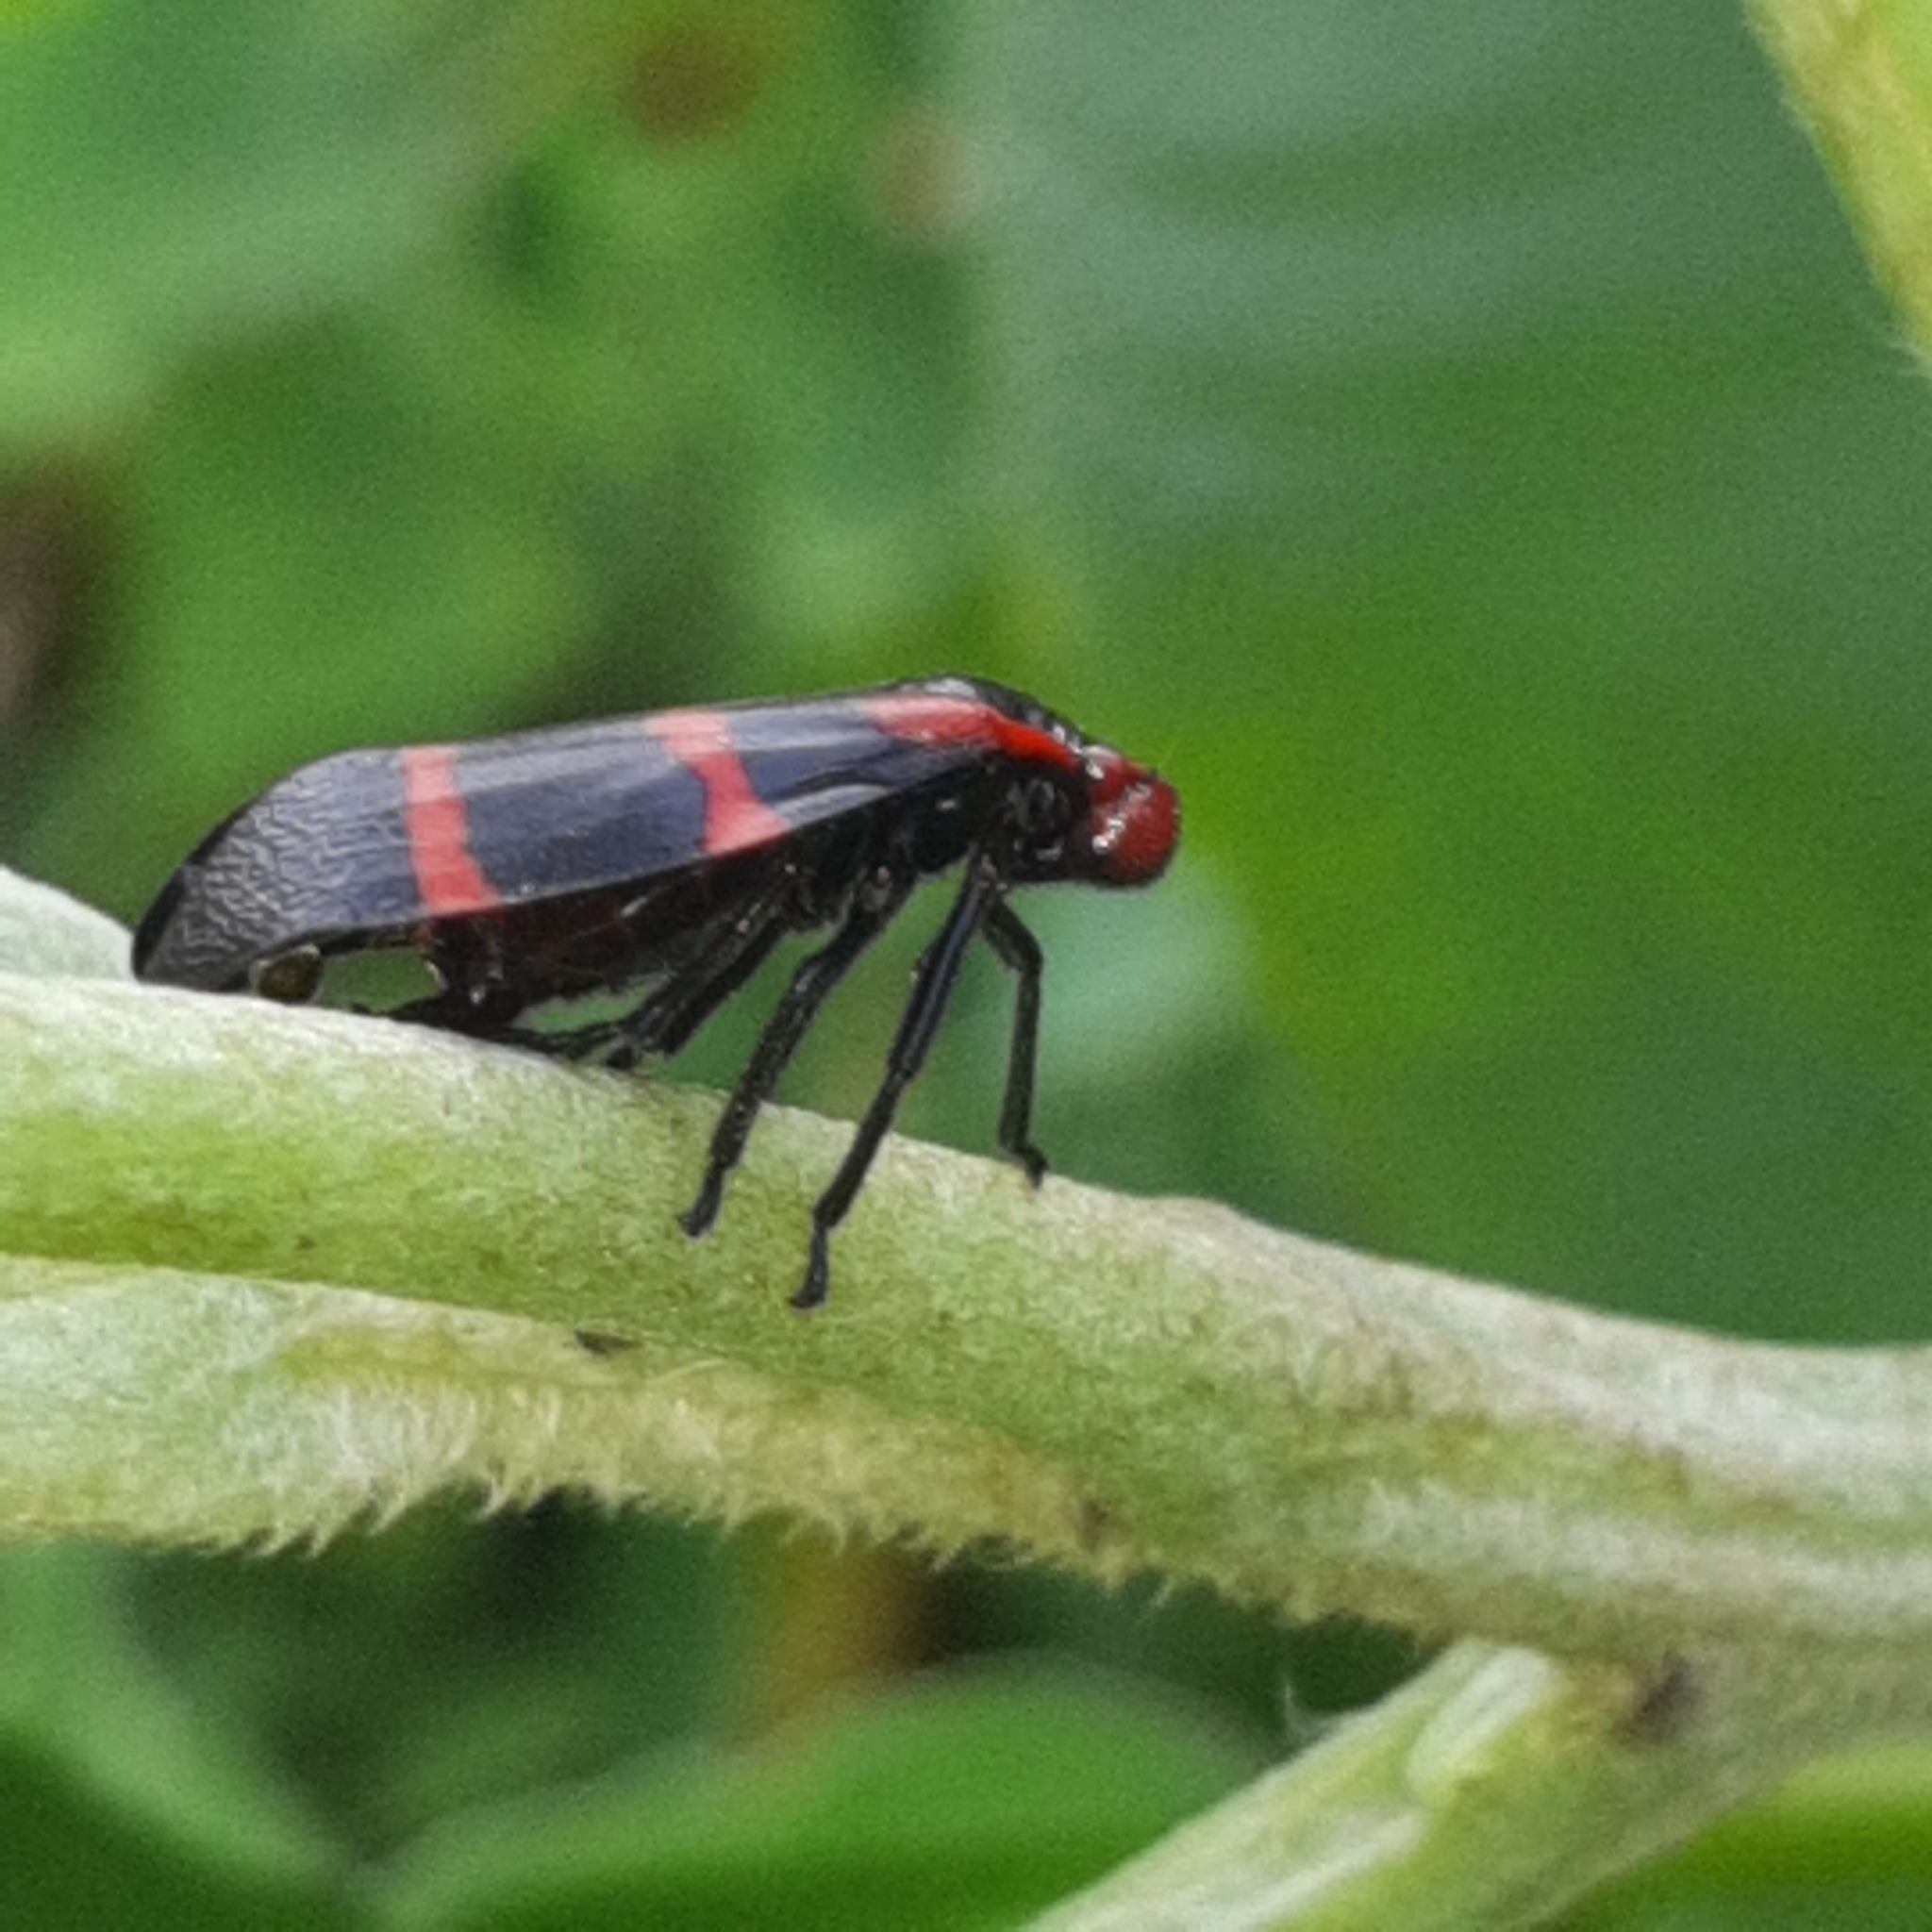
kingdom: Animalia
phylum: Arthropoda
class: Insecta
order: Hemiptera
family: Cercopidae
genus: Huaina
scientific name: Huaina inca
